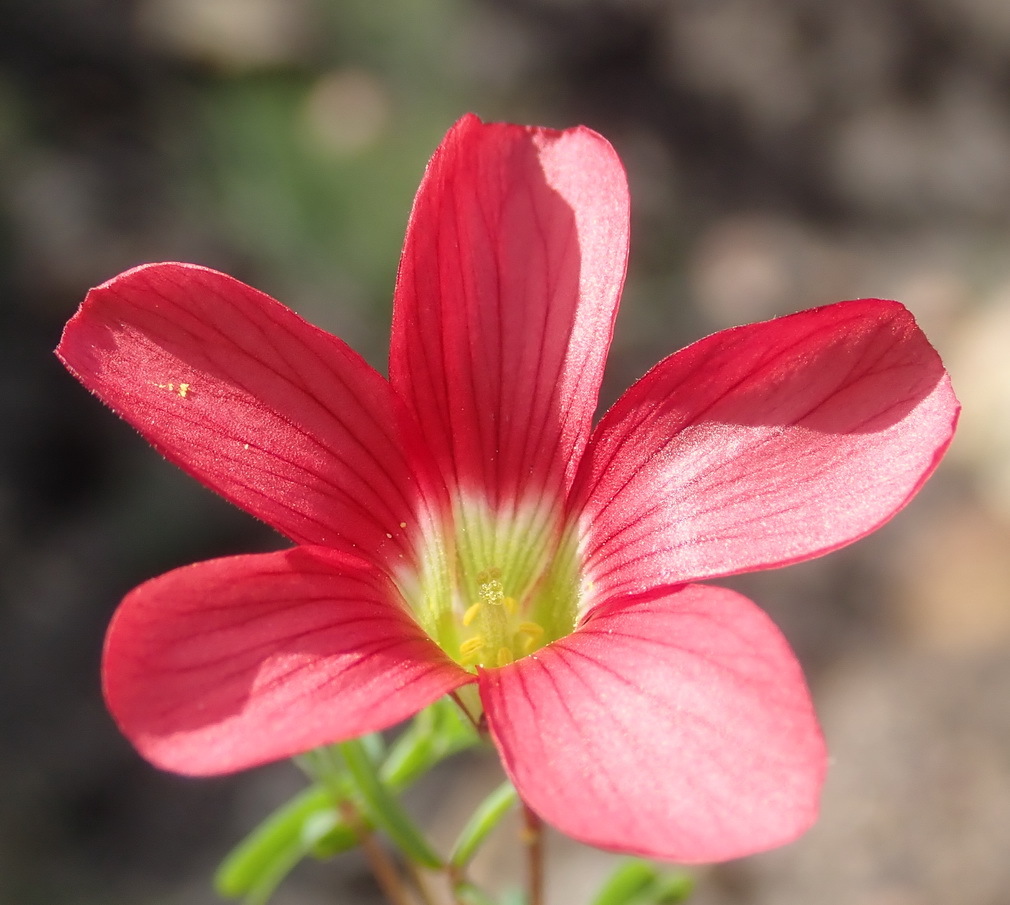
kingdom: Plantae
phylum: Tracheophyta
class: Magnoliopsida
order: Oxalidales
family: Oxalidaceae
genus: Oxalis
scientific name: Oxalis pendulifolia
